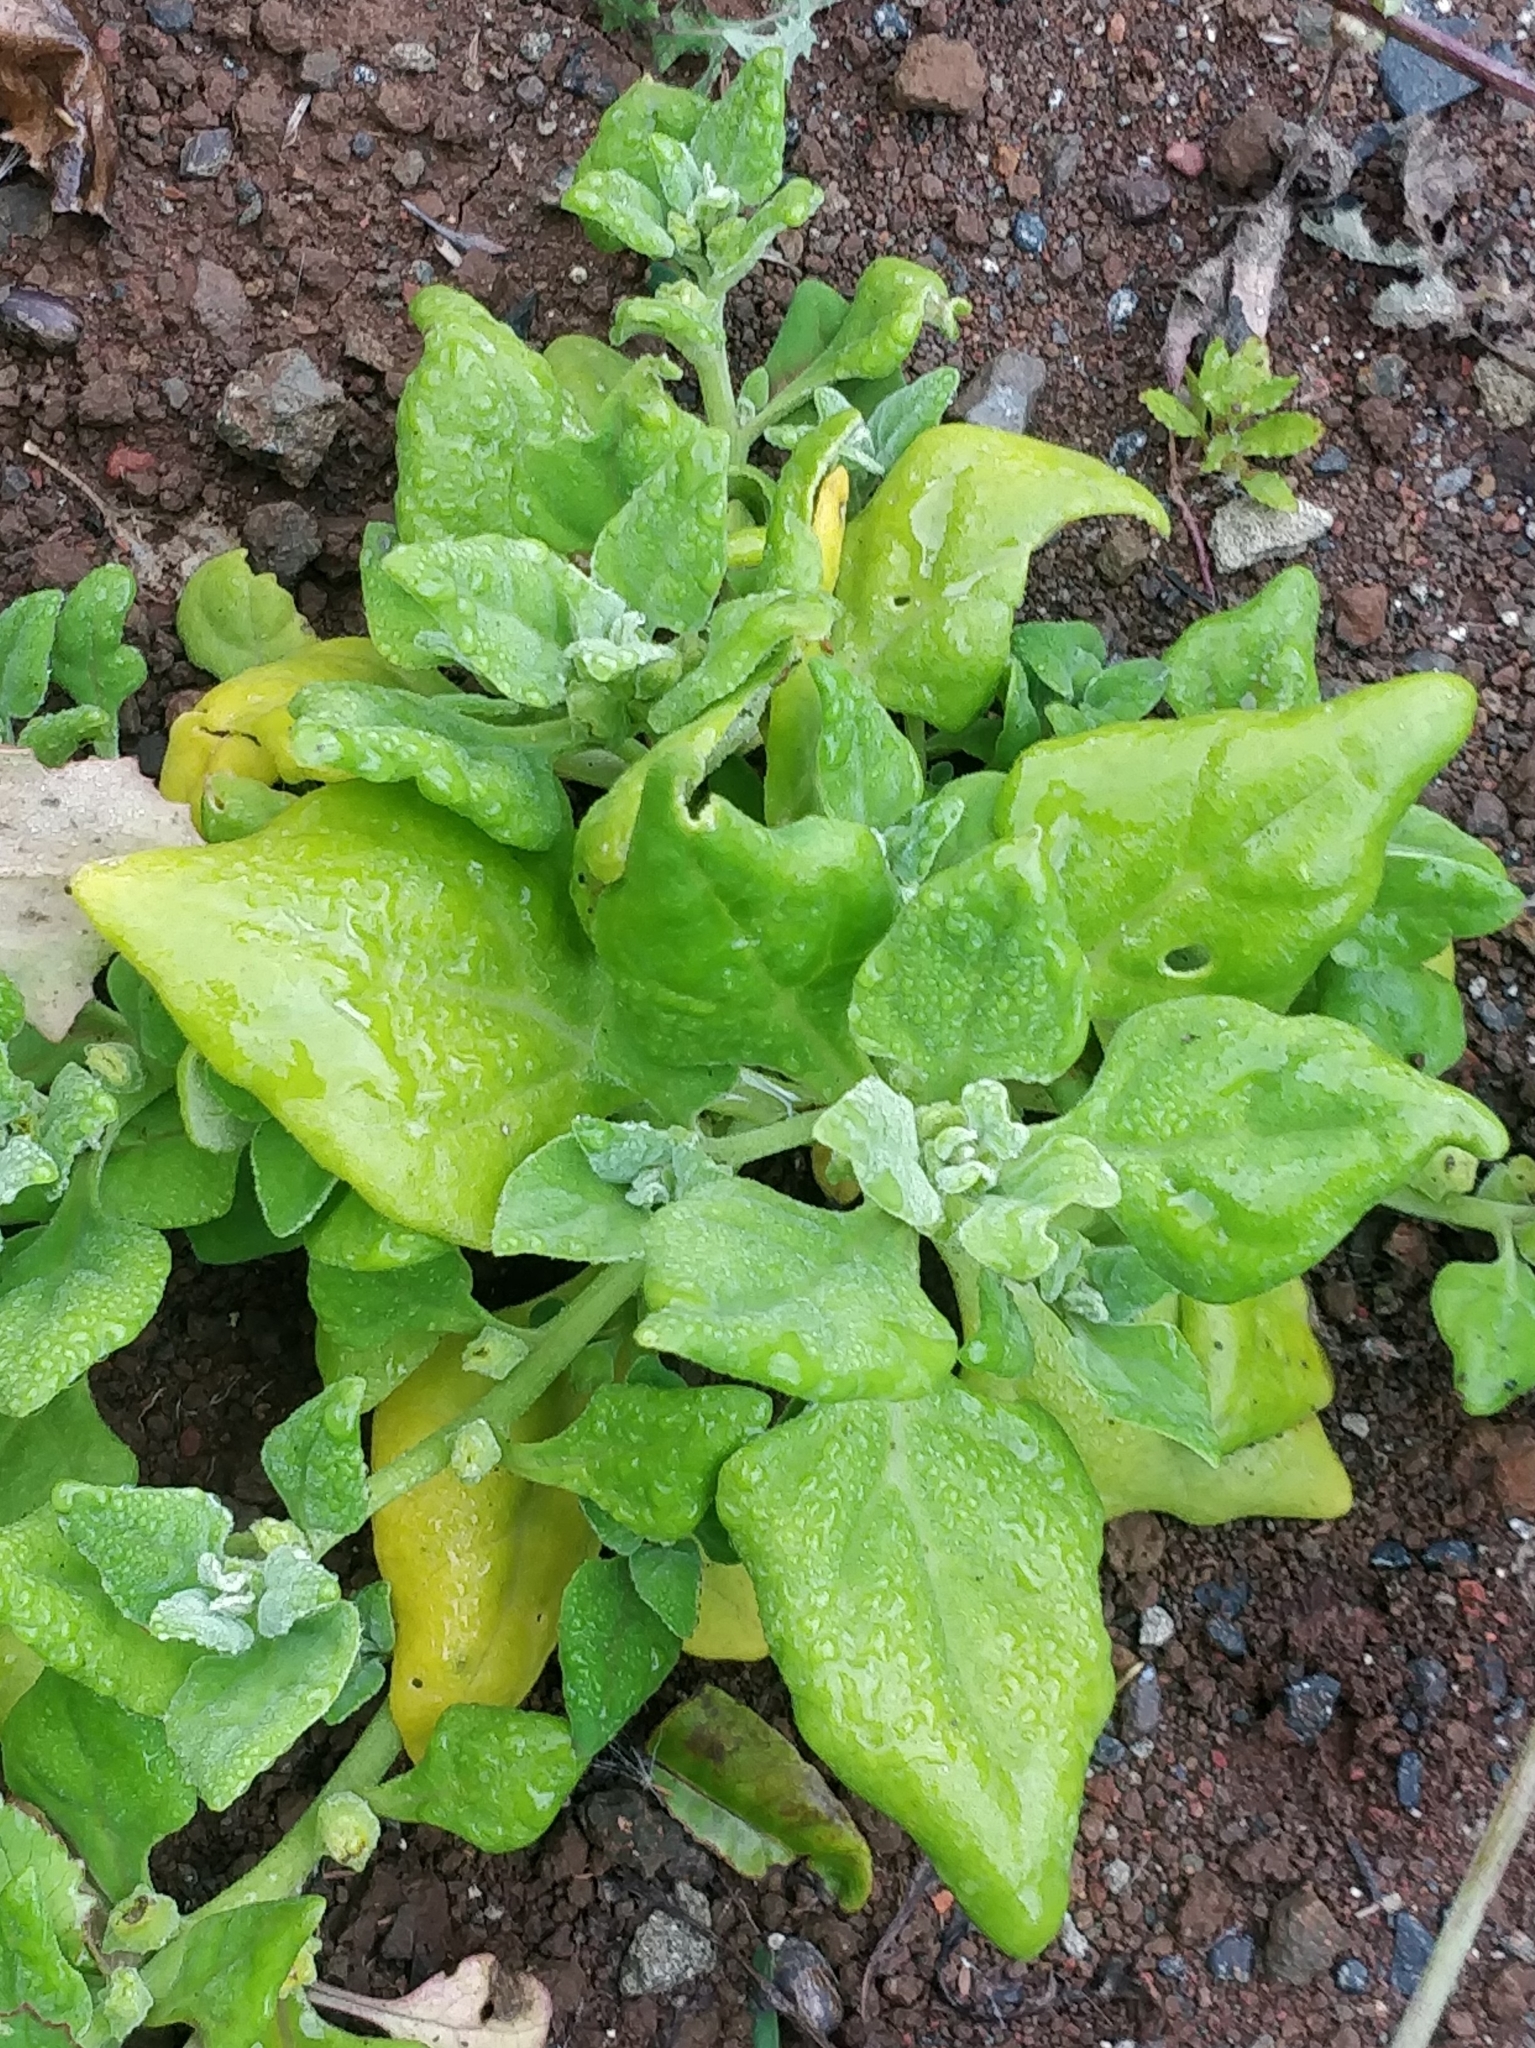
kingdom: Plantae
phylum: Tracheophyta
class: Magnoliopsida
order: Caryophyllales
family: Aizoaceae
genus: Tetragonia
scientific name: Tetragonia tetragonoides
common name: New zealand-spinach
